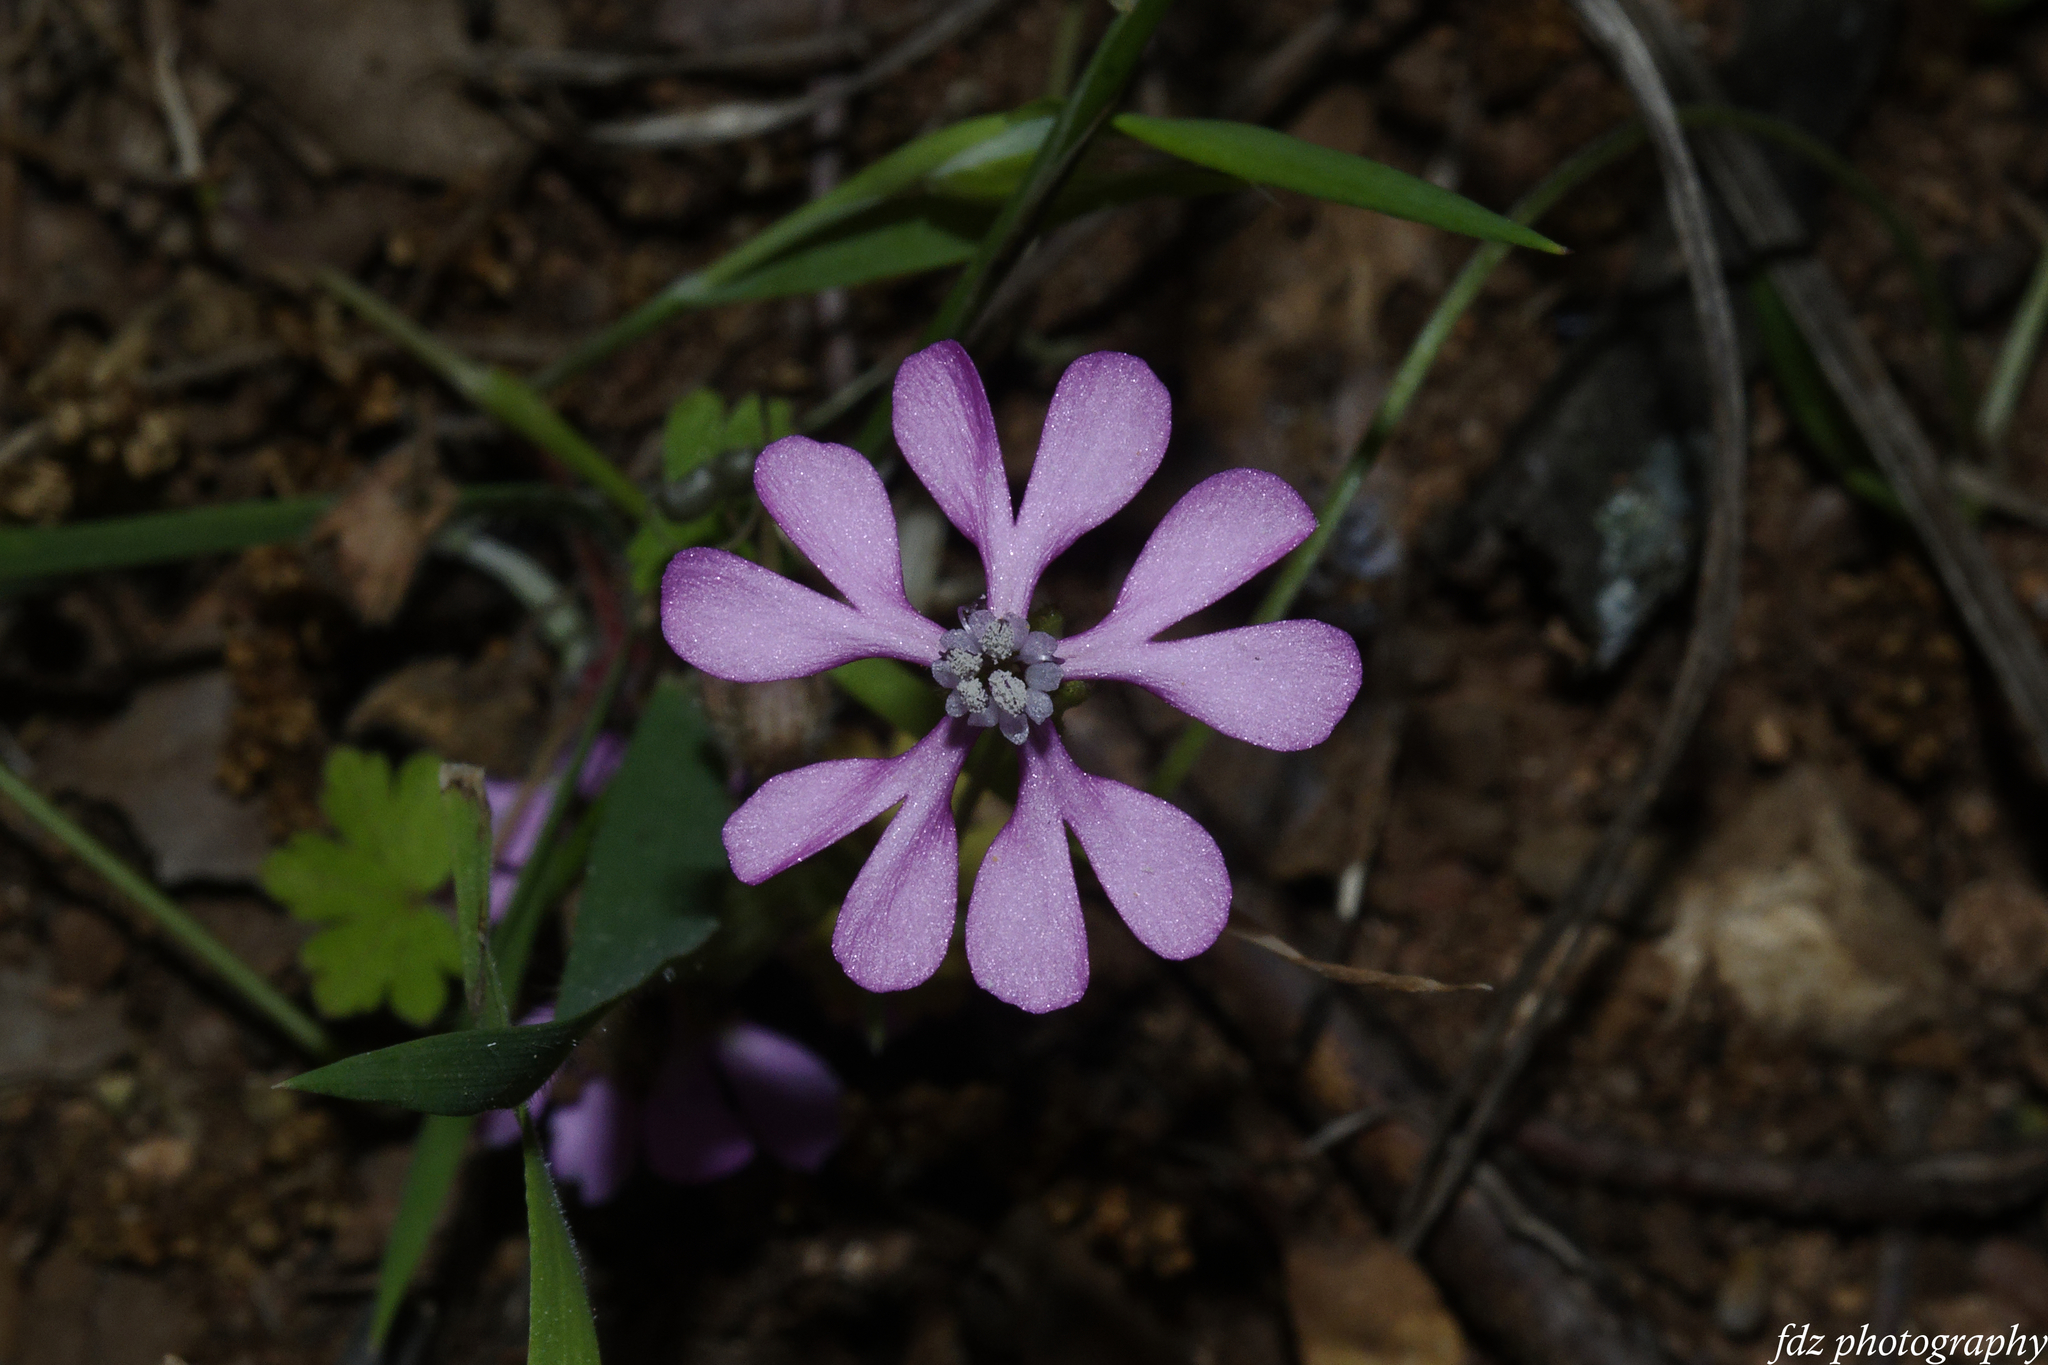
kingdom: Plantae
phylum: Tracheophyta
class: Magnoliopsida
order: Caryophyllales
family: Caryophyllaceae
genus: Silene
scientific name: Silene colorata
